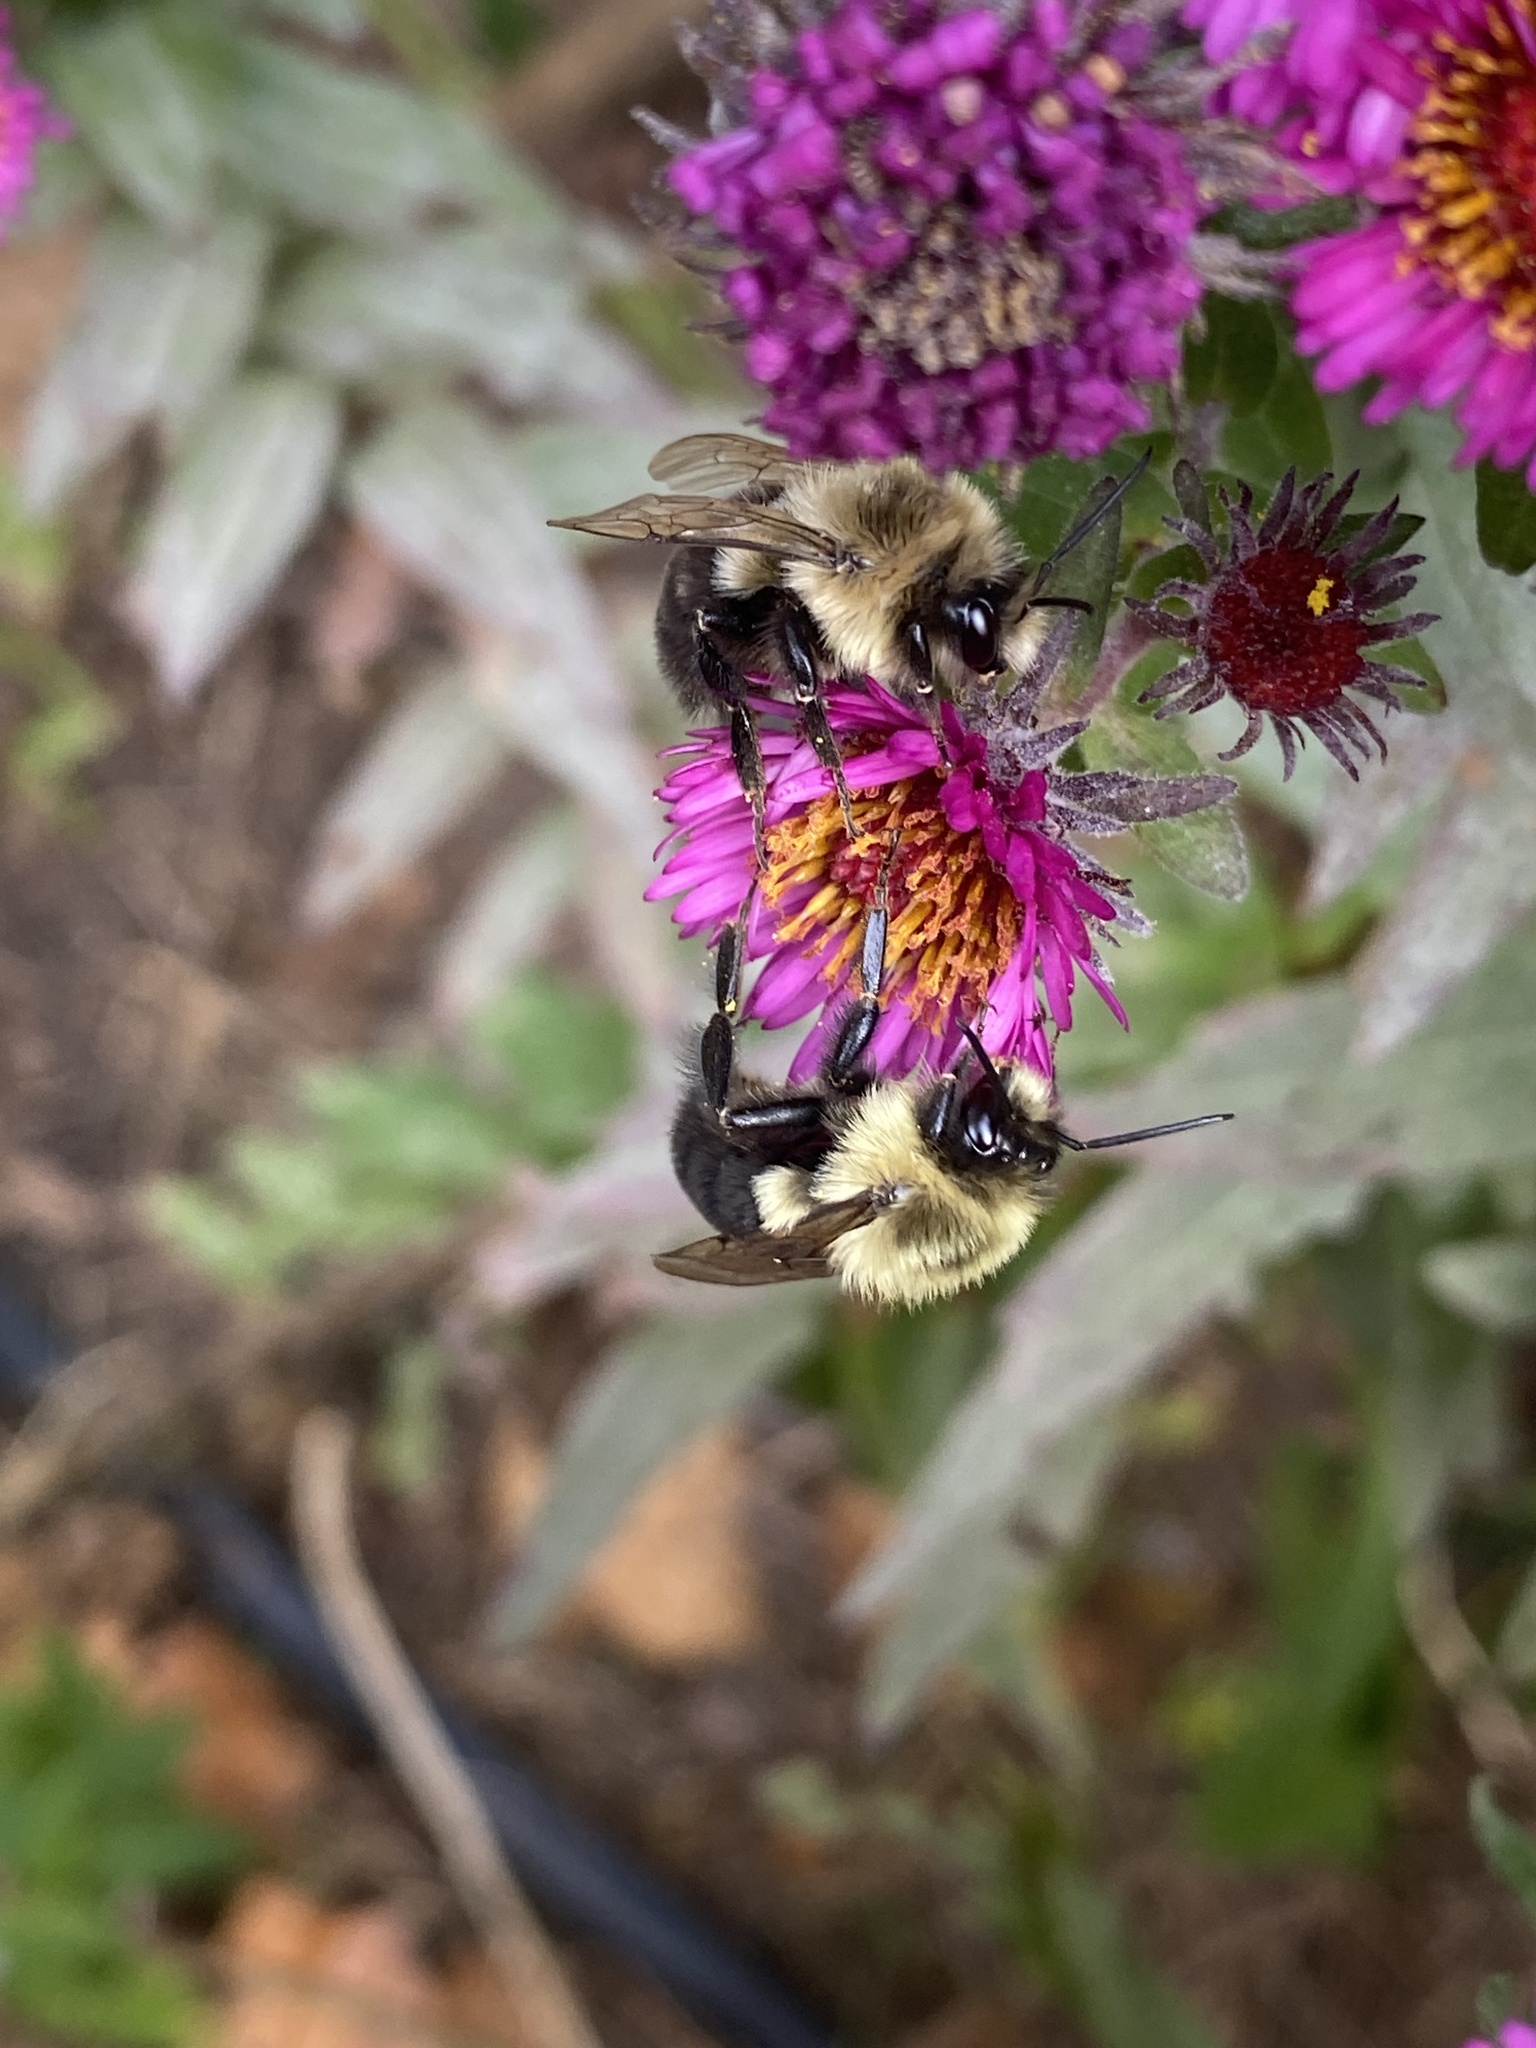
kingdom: Animalia
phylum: Arthropoda
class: Insecta
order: Hymenoptera
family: Apidae
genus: Bombus
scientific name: Bombus impatiens
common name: Common eastern bumble bee
